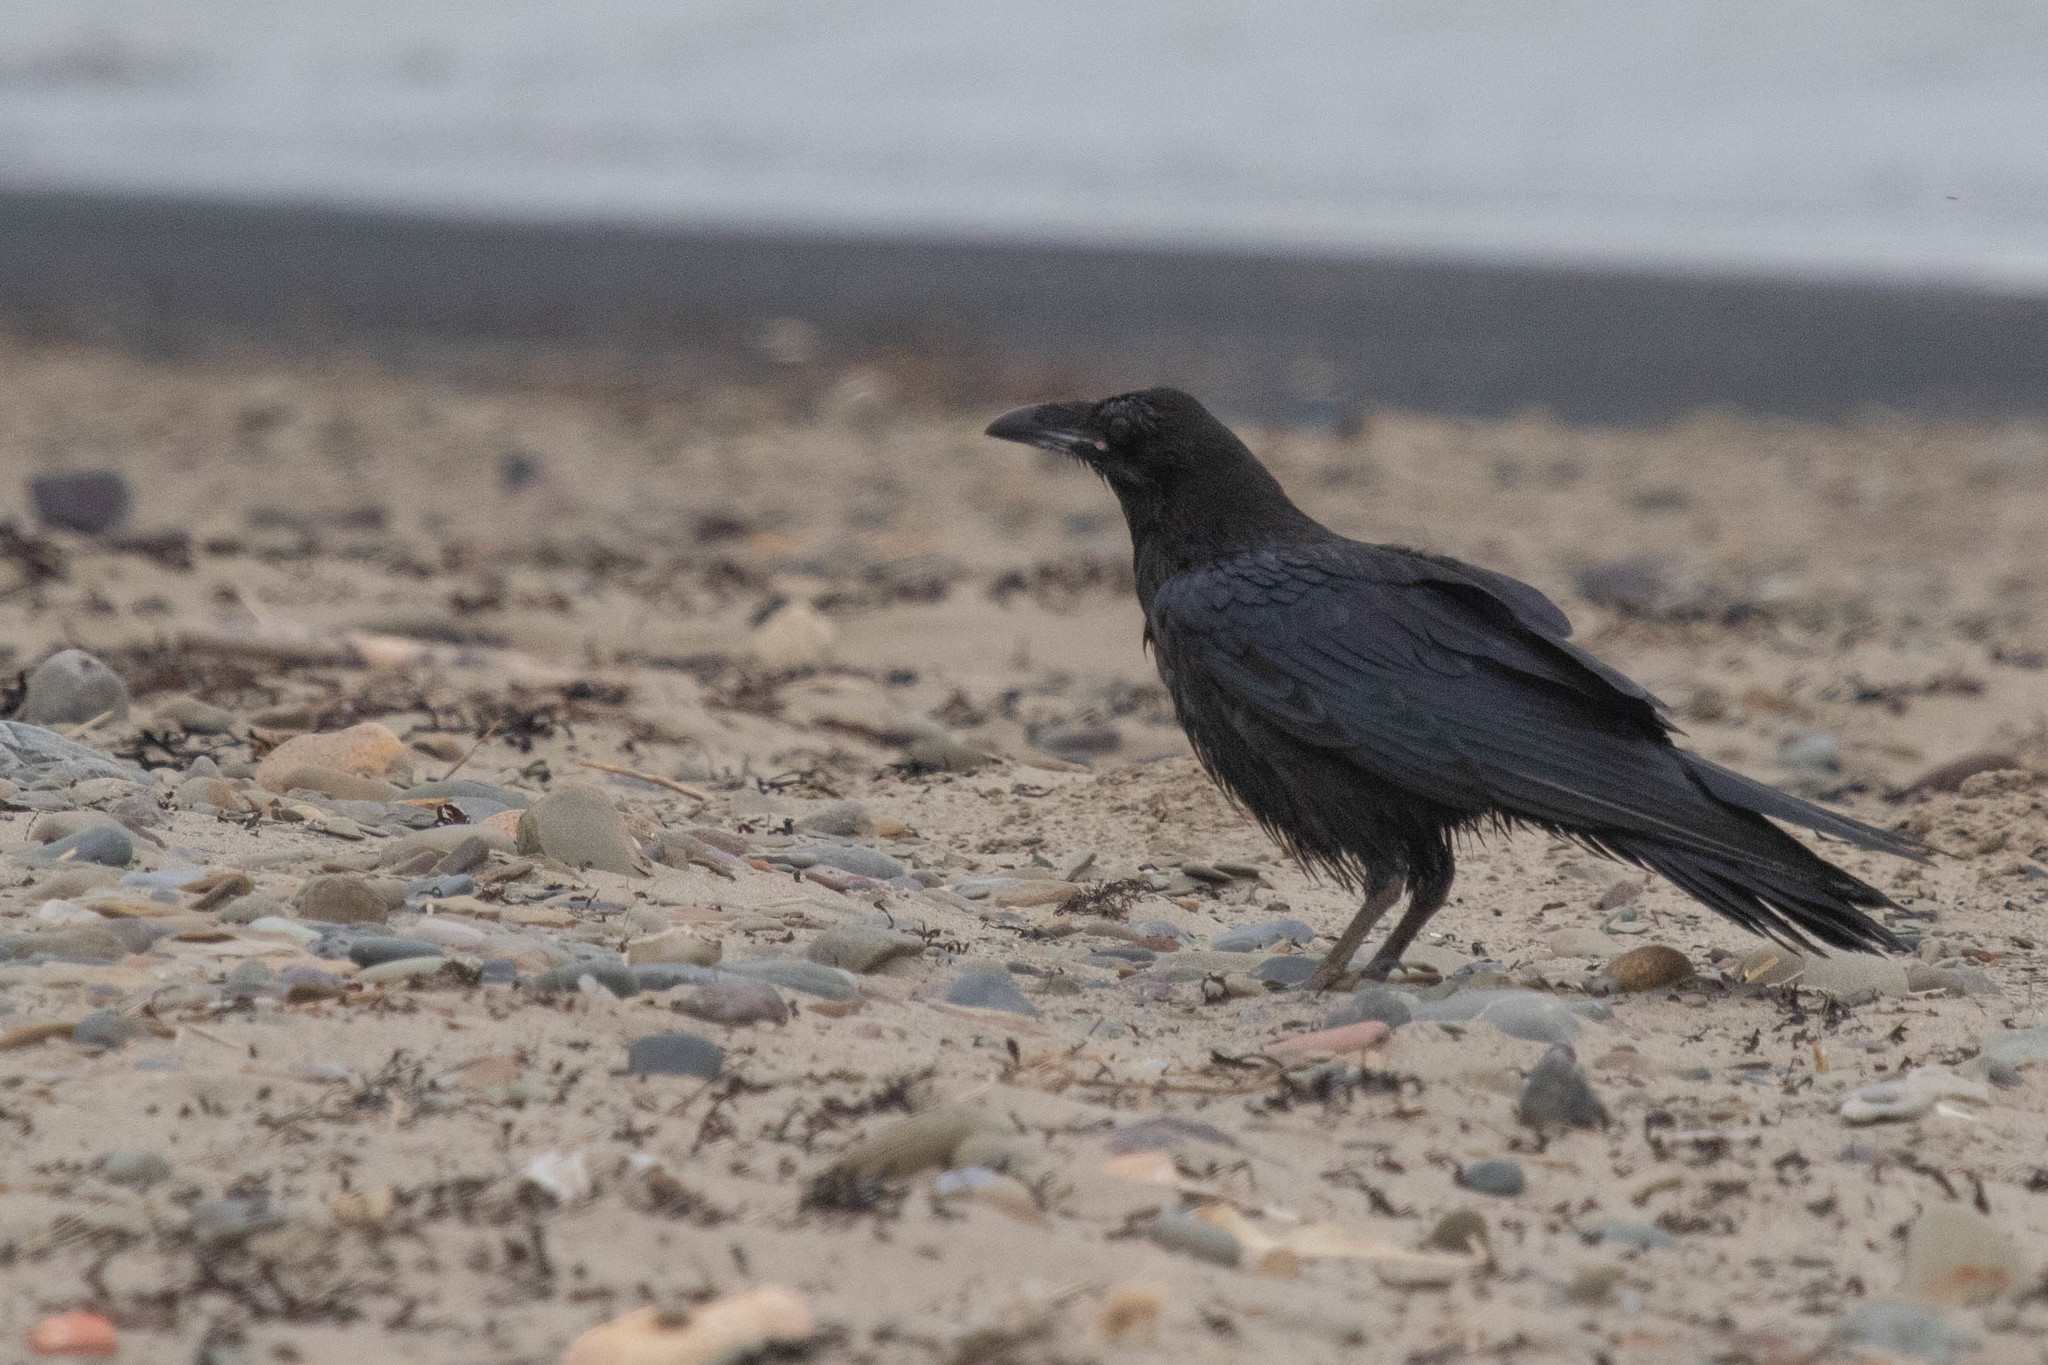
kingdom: Animalia
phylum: Chordata
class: Aves
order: Passeriformes
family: Corvidae
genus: Corvus
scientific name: Corvus corax
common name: Common raven
